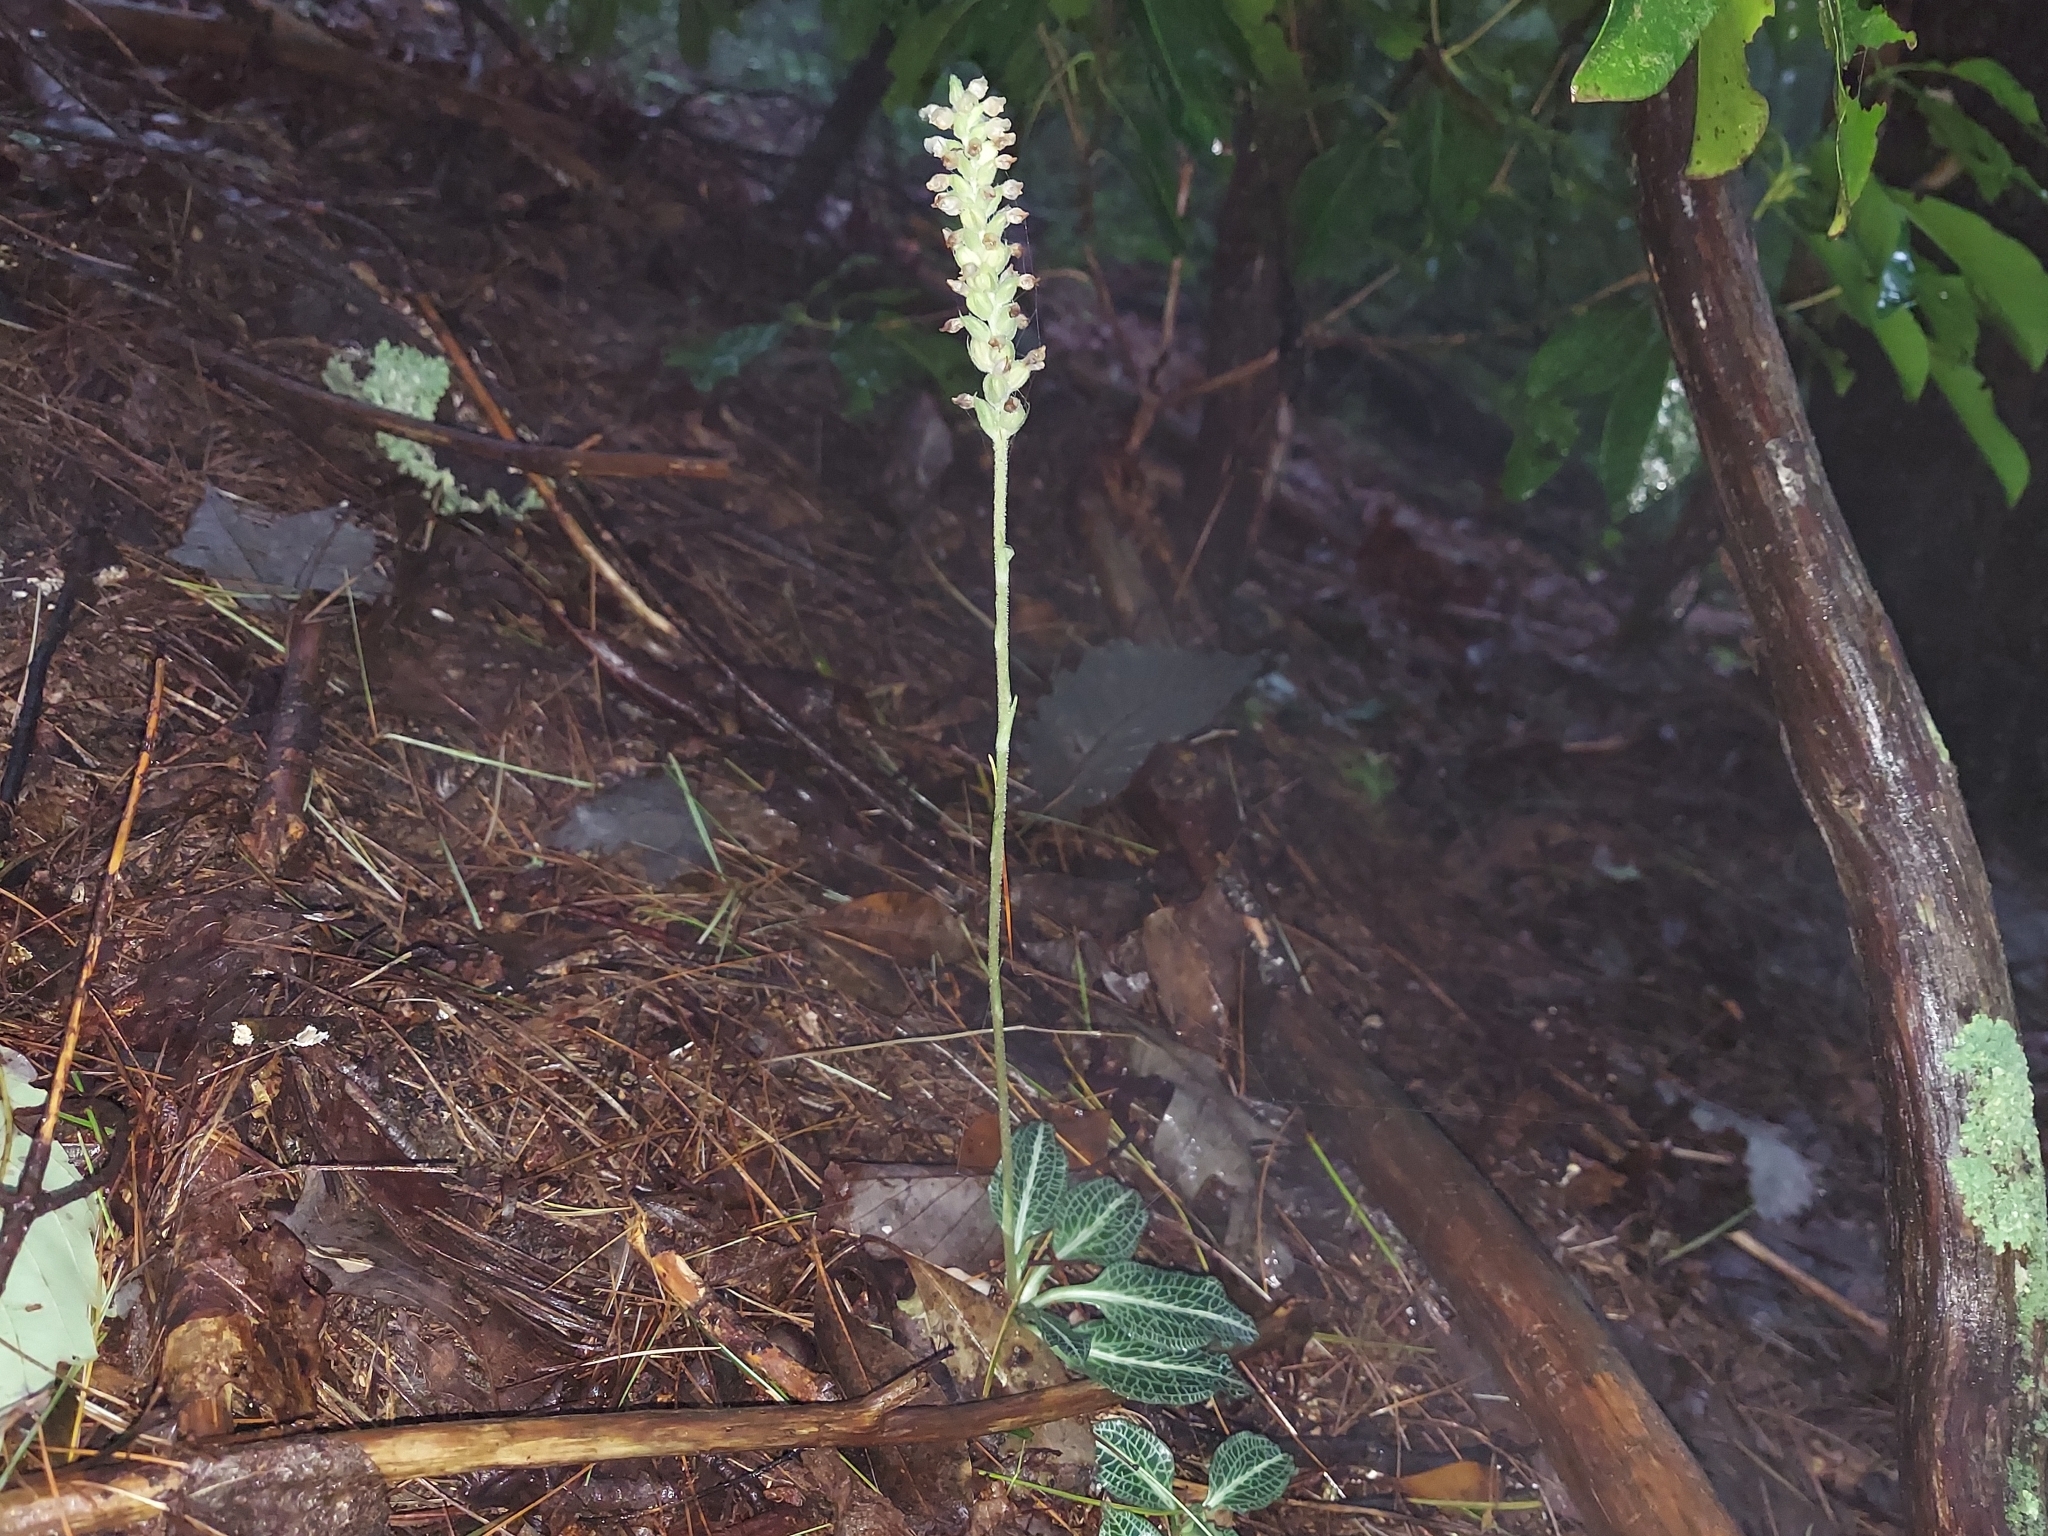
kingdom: Plantae
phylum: Tracheophyta
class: Liliopsida
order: Asparagales
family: Orchidaceae
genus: Goodyera
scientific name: Goodyera pubescens
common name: Downy rattlesnake-plantain
